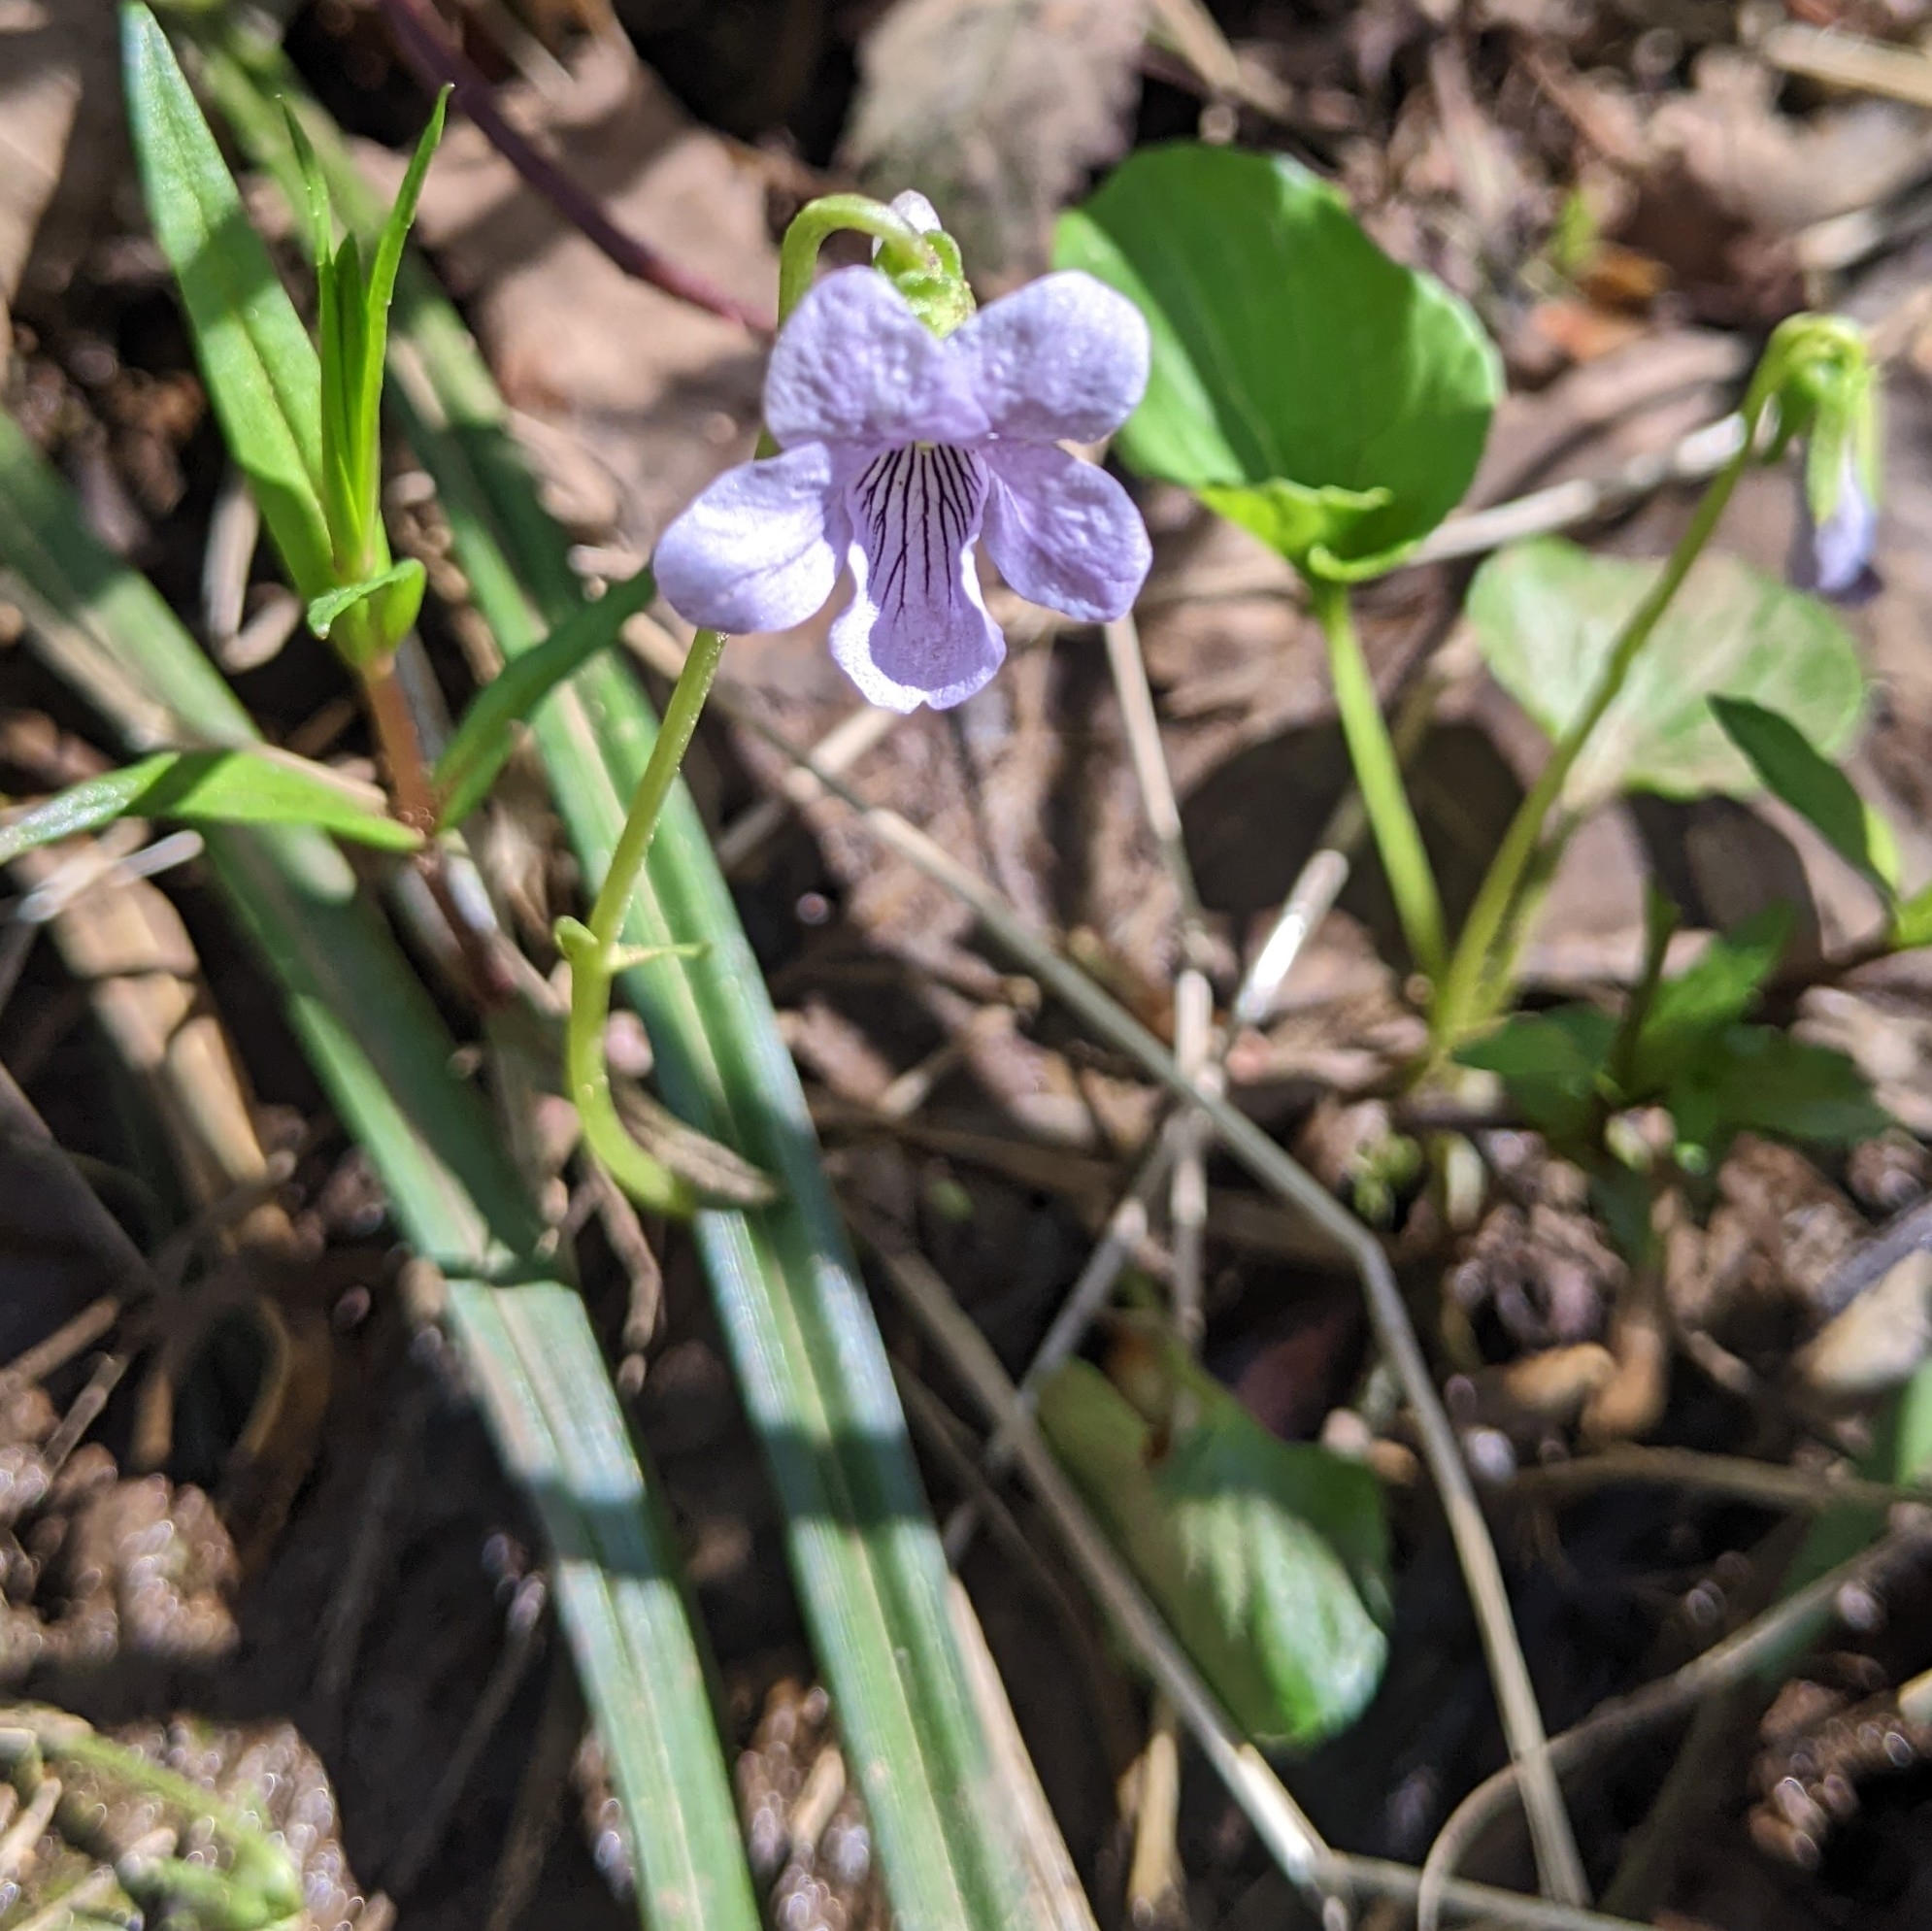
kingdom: Plantae
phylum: Tracheophyta
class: Magnoliopsida
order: Malpighiales
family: Violaceae
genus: Viola
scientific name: Viola palustris
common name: Marsh violet
